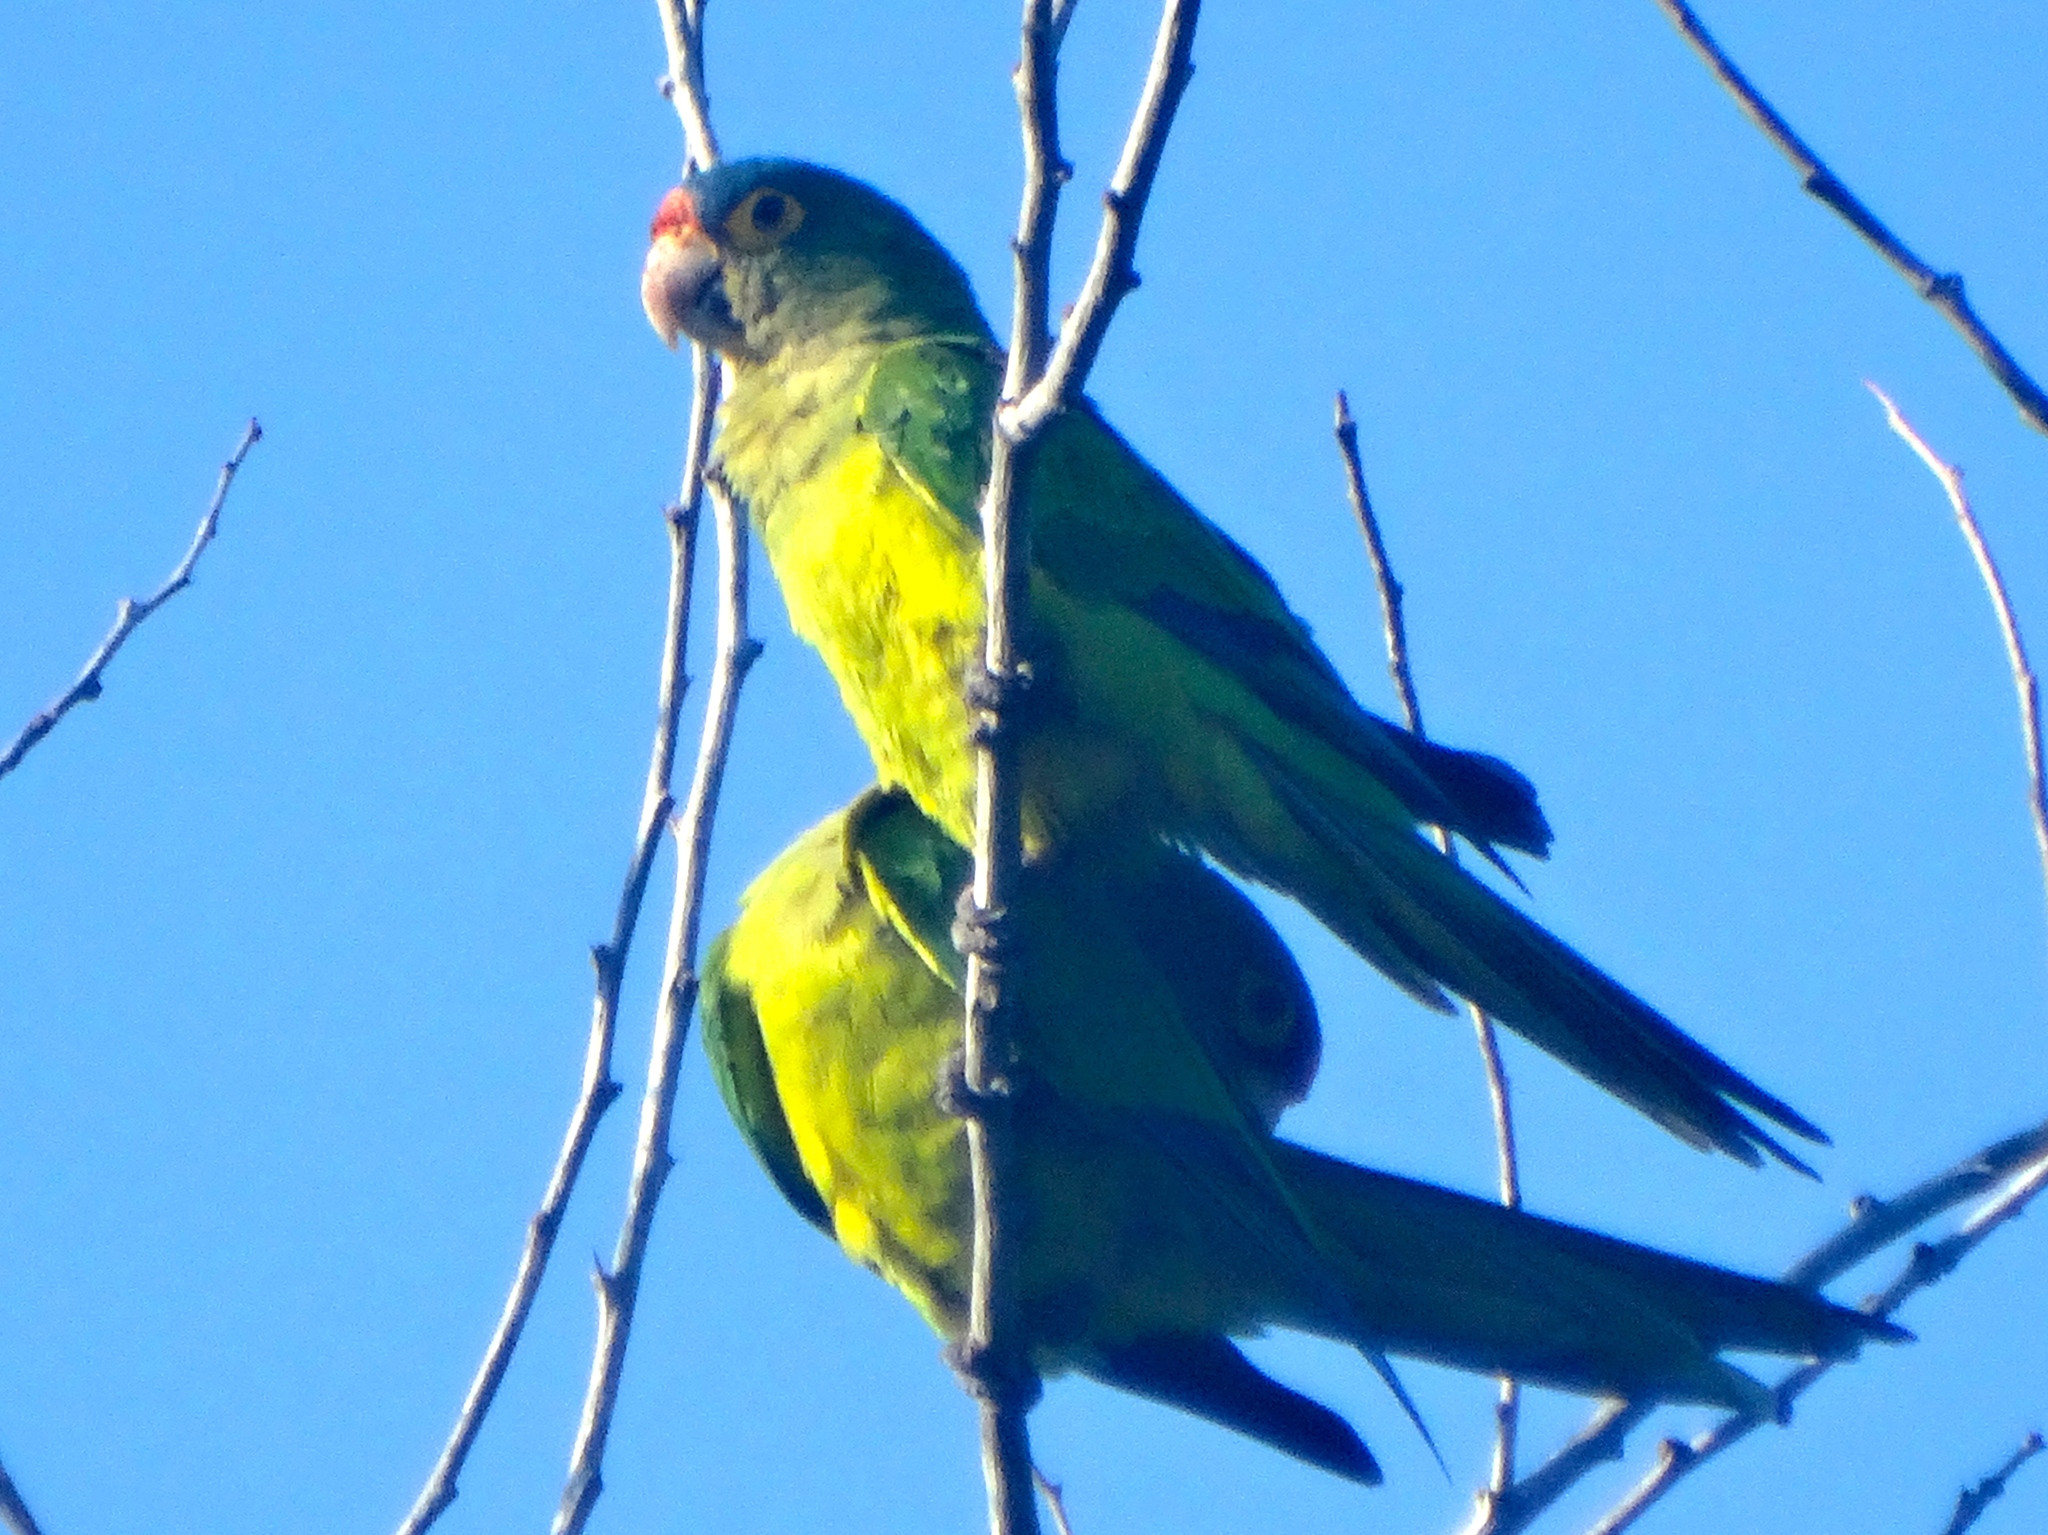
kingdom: Animalia
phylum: Chordata
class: Aves
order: Psittaciformes
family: Psittacidae
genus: Aratinga
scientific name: Aratinga canicularis
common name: Orange-fronted parakeet
